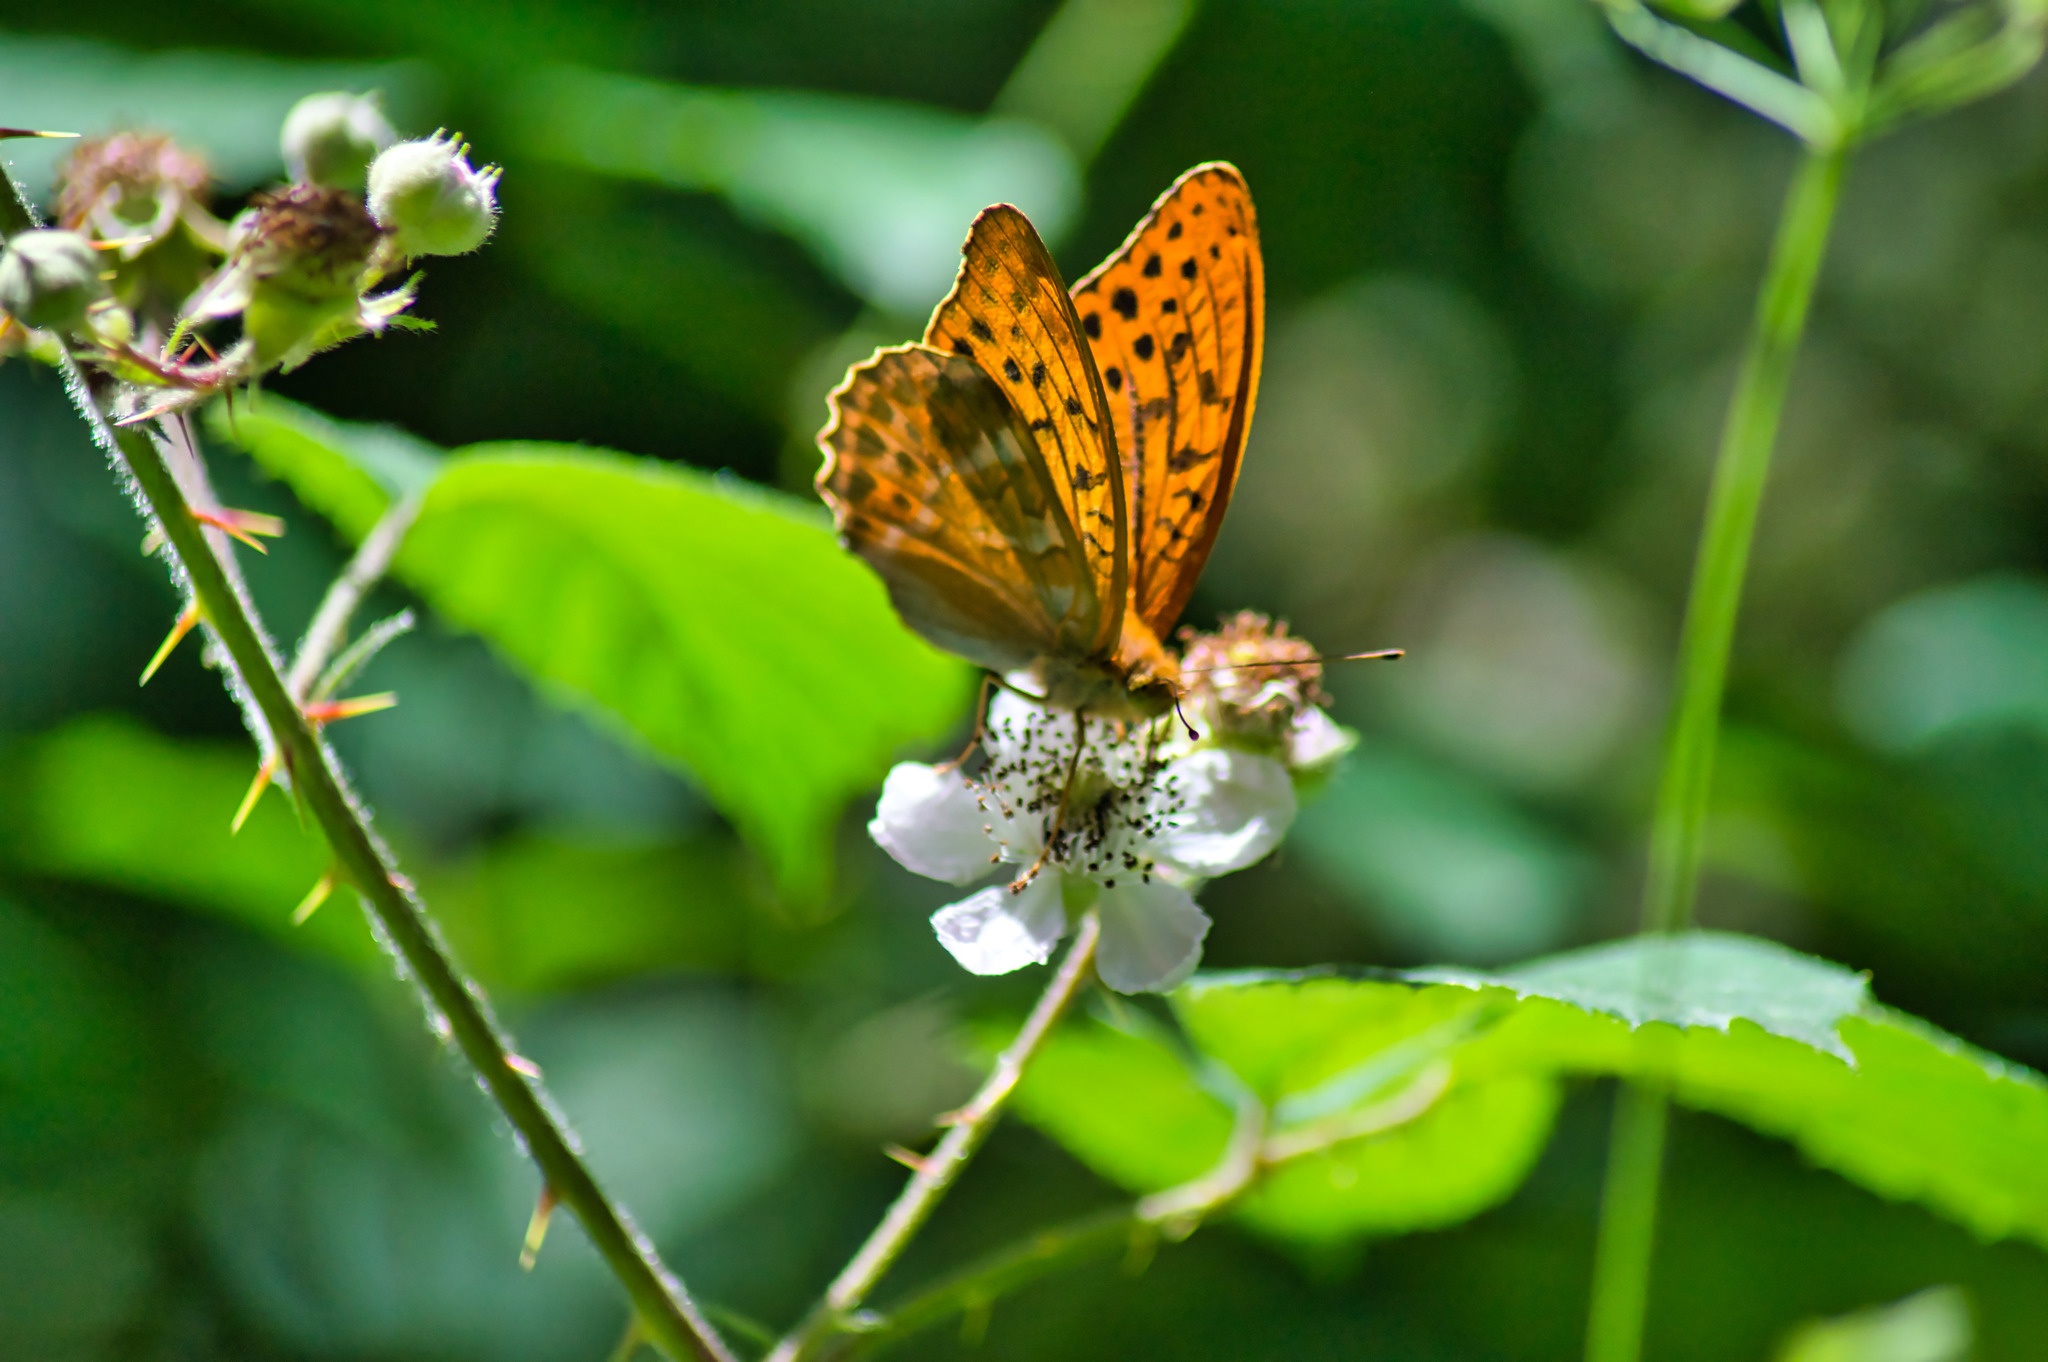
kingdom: Animalia
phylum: Arthropoda
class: Insecta
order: Lepidoptera
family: Nymphalidae
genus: Argynnis
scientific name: Argynnis paphia
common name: Silver-washed fritillary
